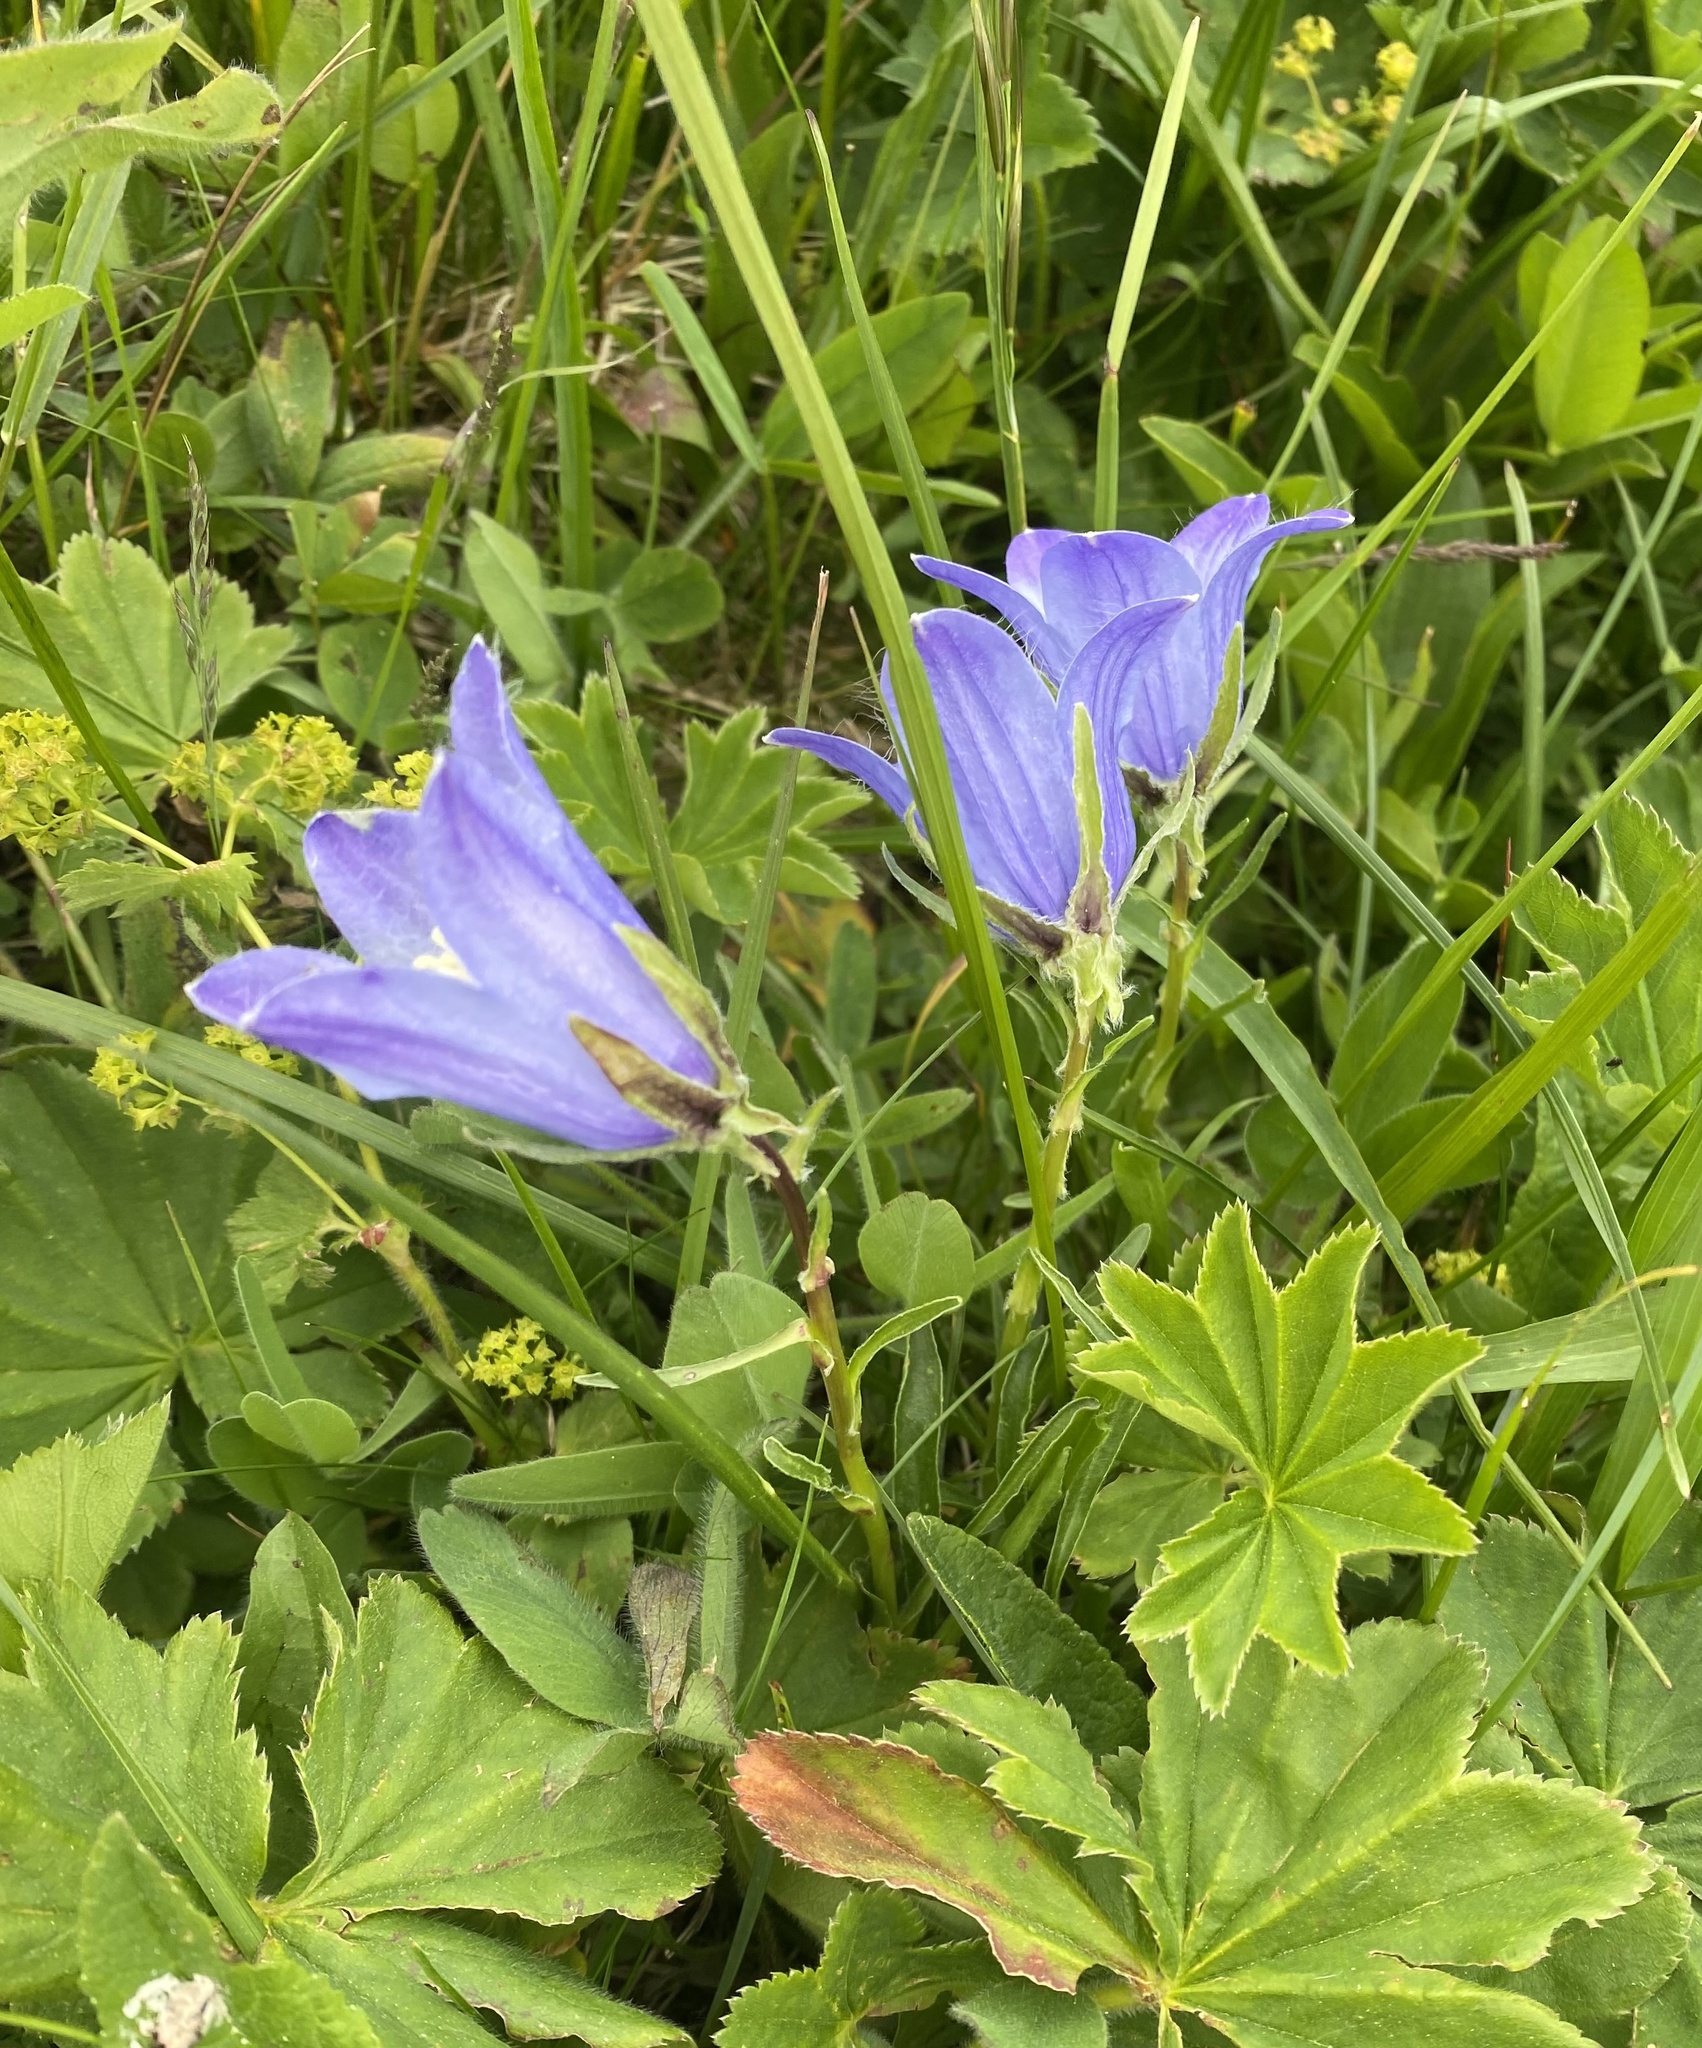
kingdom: Plantae
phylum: Tracheophyta
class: Magnoliopsida
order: Asterales
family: Campanulaceae
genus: Campanula
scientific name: Campanula tridentata
